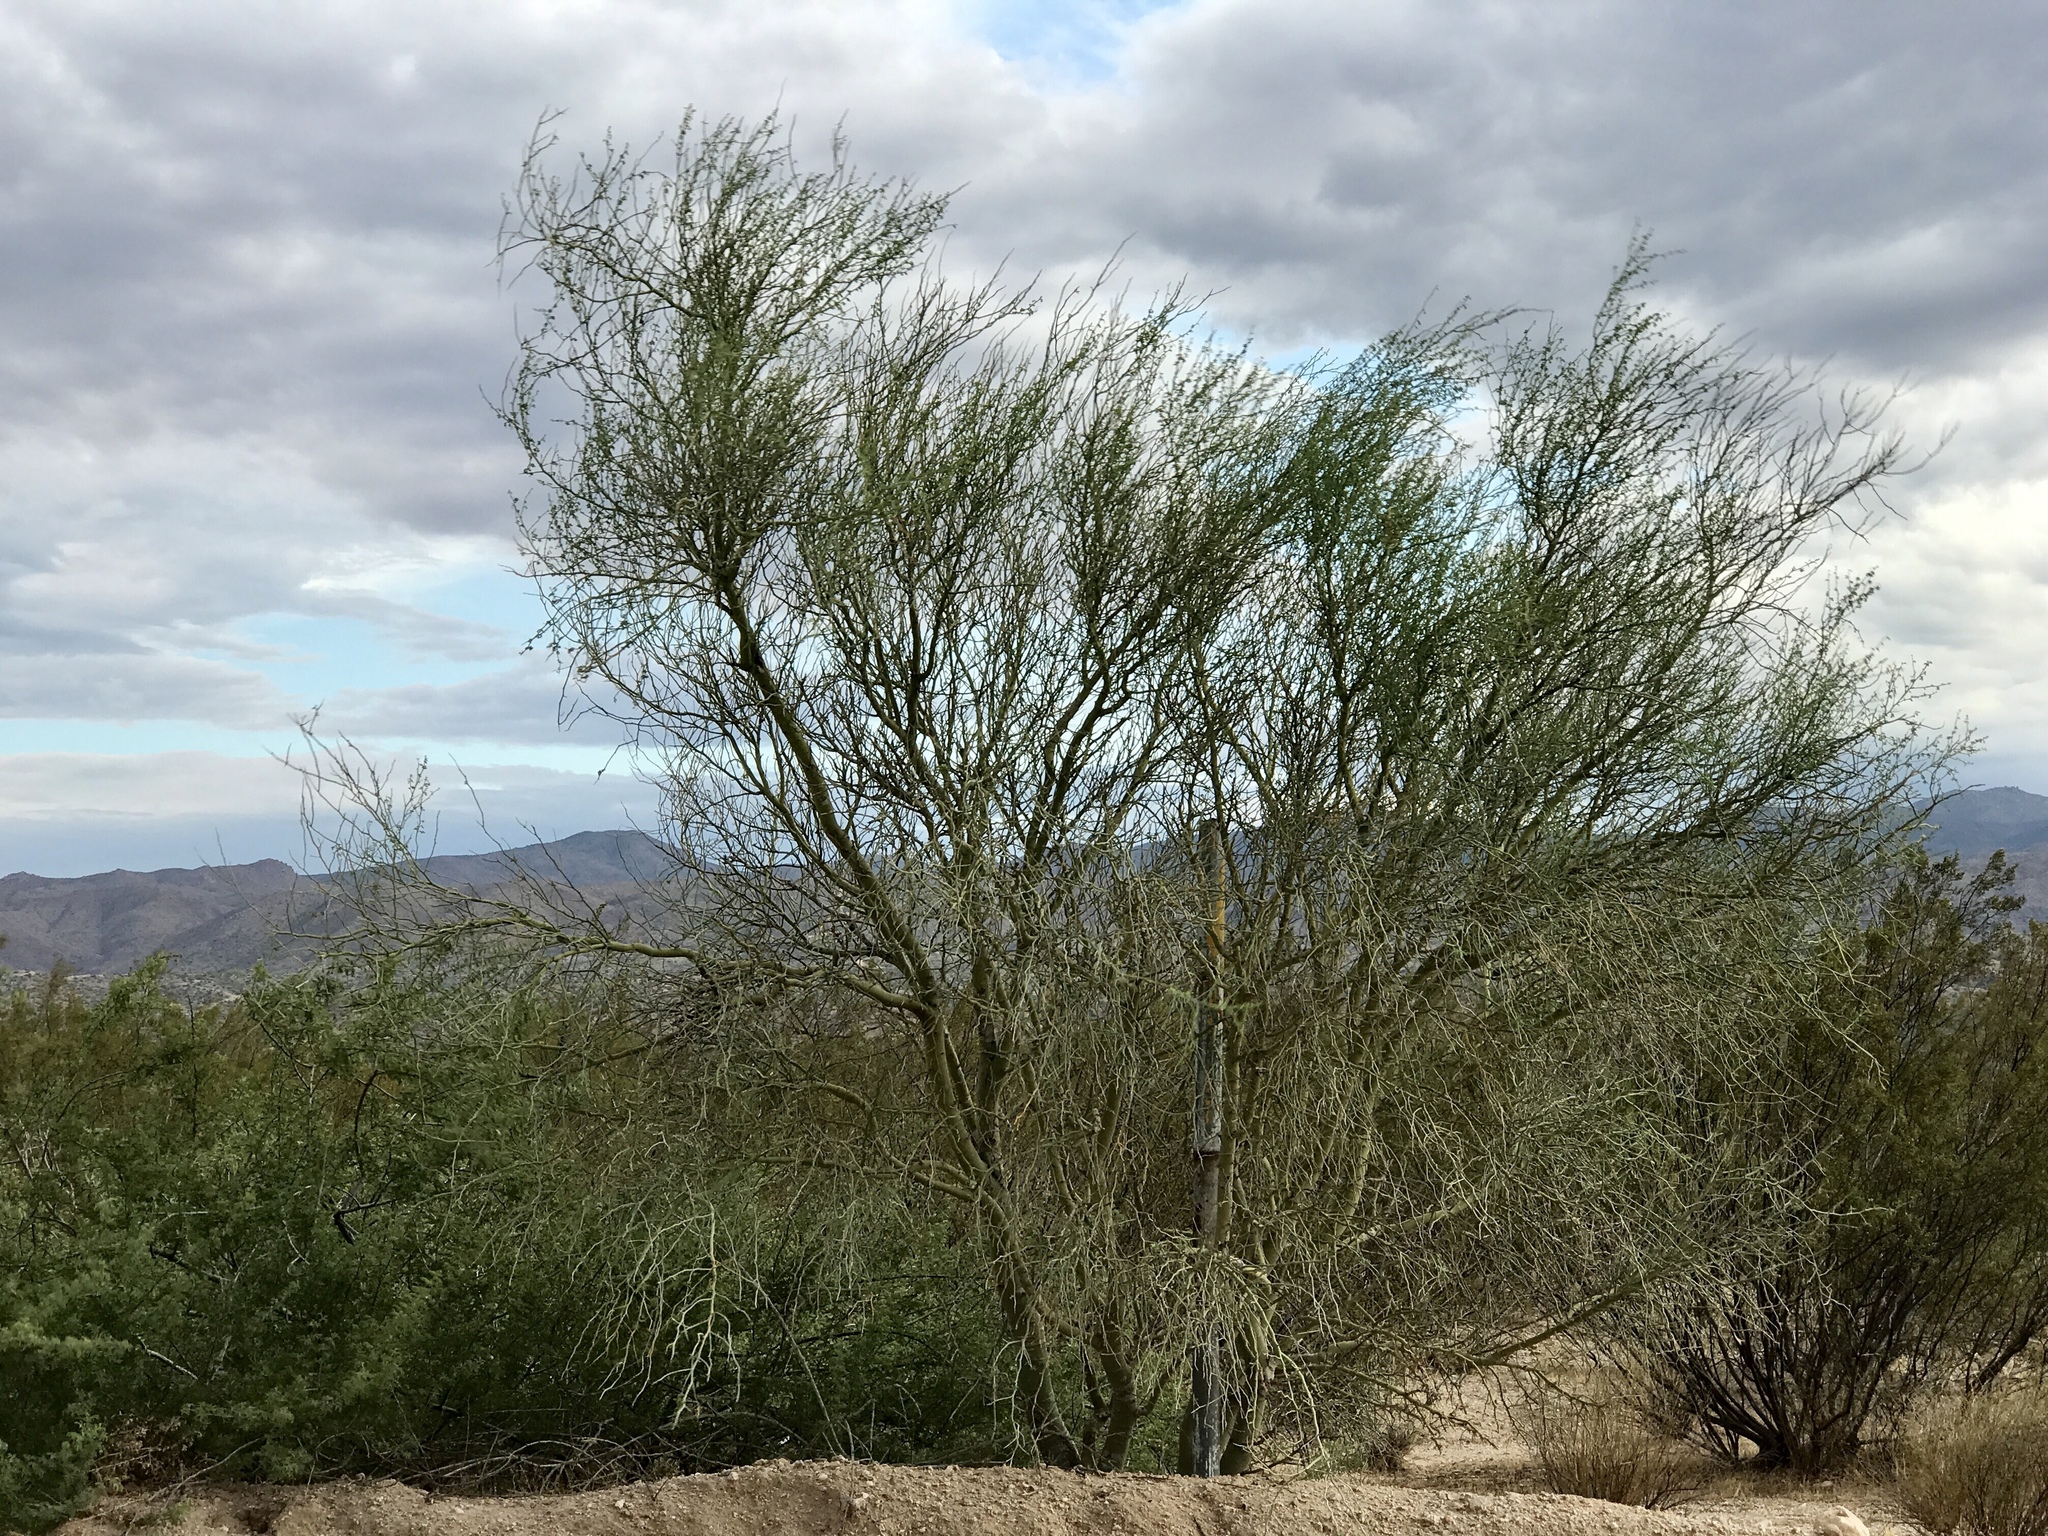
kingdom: Plantae
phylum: Tracheophyta
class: Magnoliopsida
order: Fabales
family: Fabaceae
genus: Parkinsonia
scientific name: Parkinsonia florida
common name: Blue paloverde
